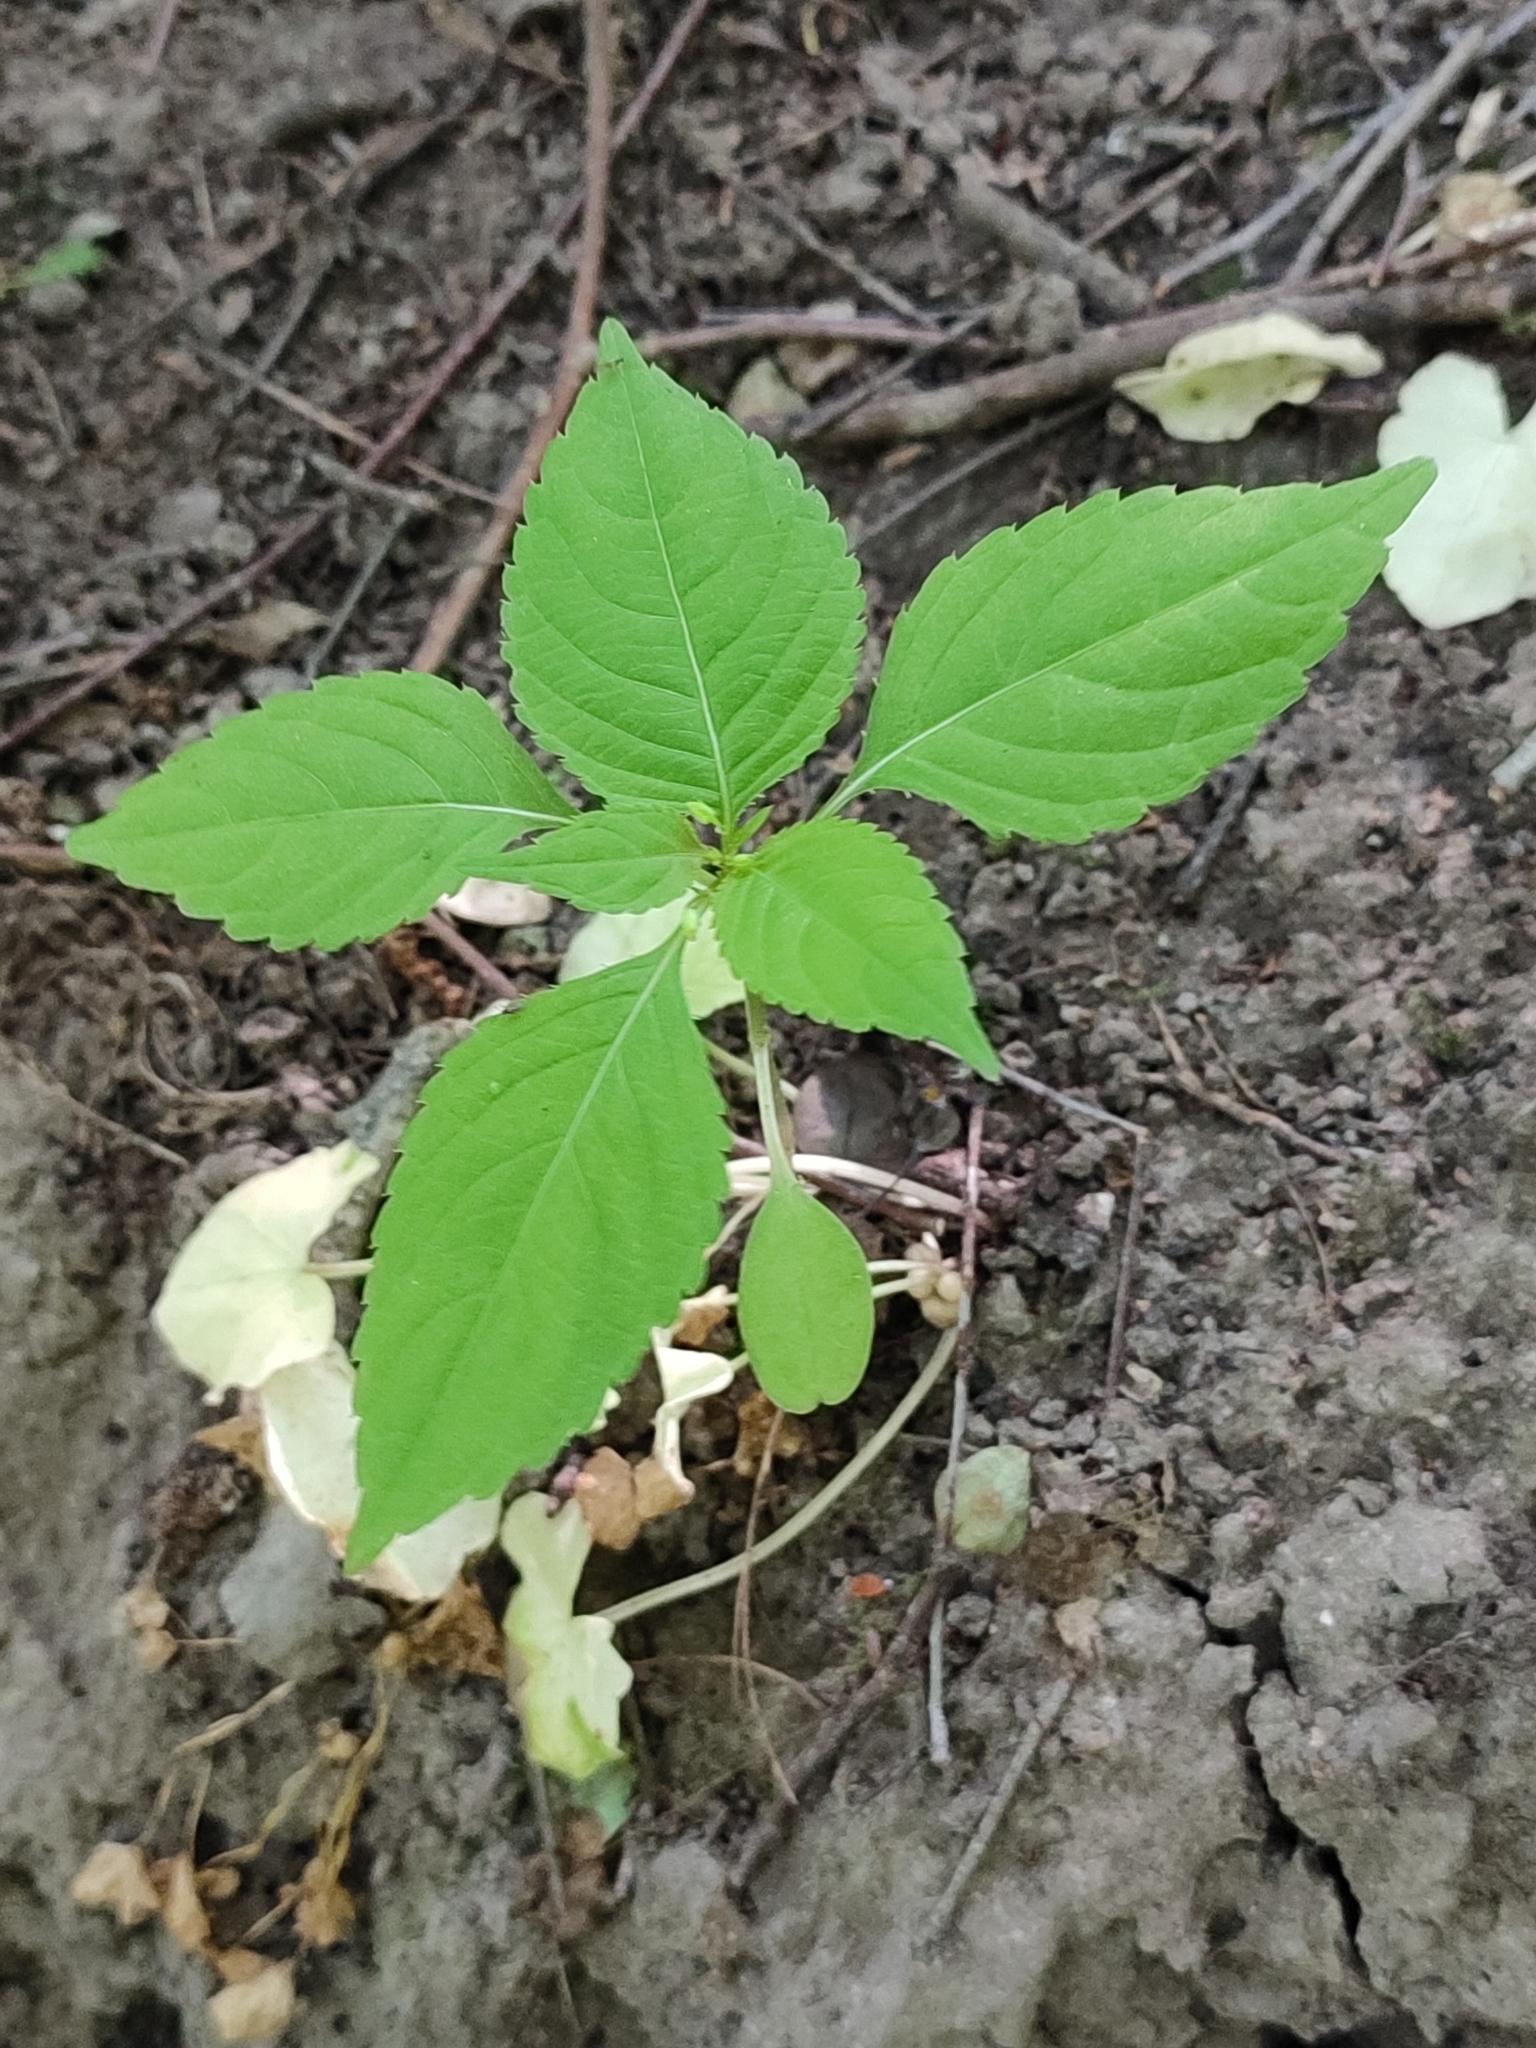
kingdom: Plantae
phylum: Tracheophyta
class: Magnoliopsida
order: Ericales
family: Balsaminaceae
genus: Impatiens
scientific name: Impatiens parviflora
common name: Small balsam
